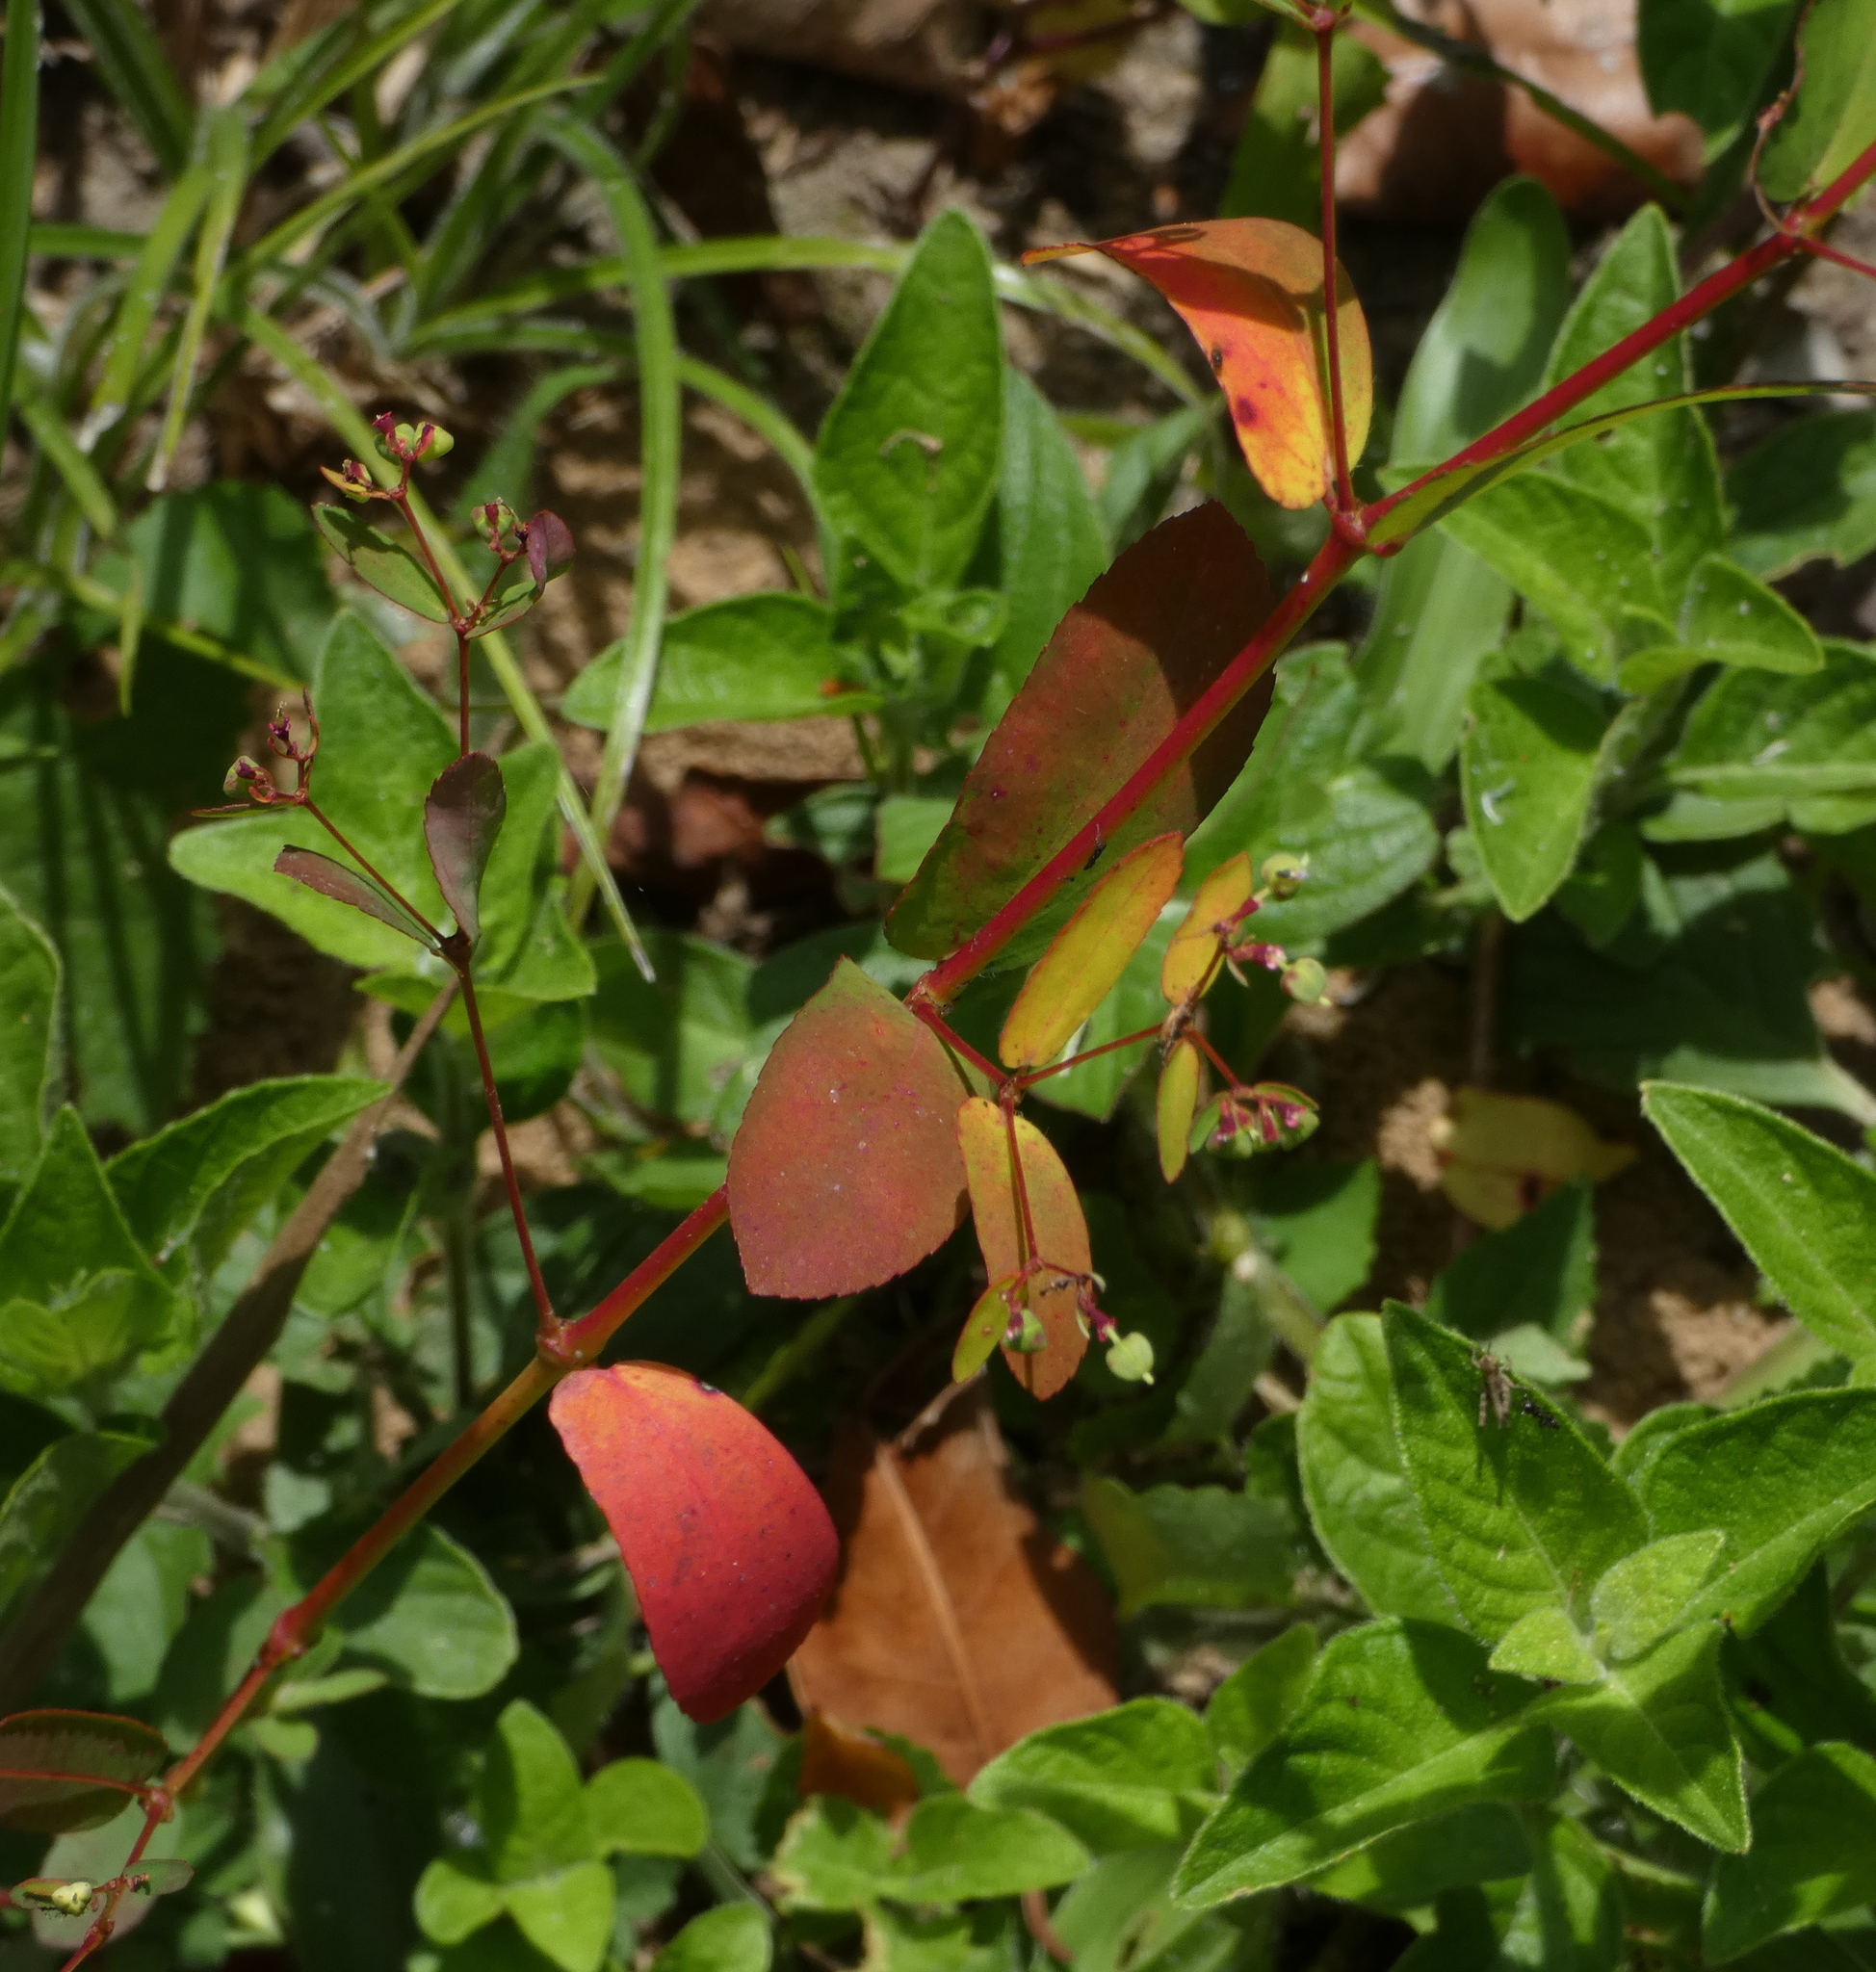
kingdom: Plantae
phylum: Tracheophyta
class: Magnoliopsida
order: Malpighiales
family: Euphorbiaceae
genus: Euphorbia
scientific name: Euphorbia hyssopifolia
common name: Hyssopleaf sandmat
